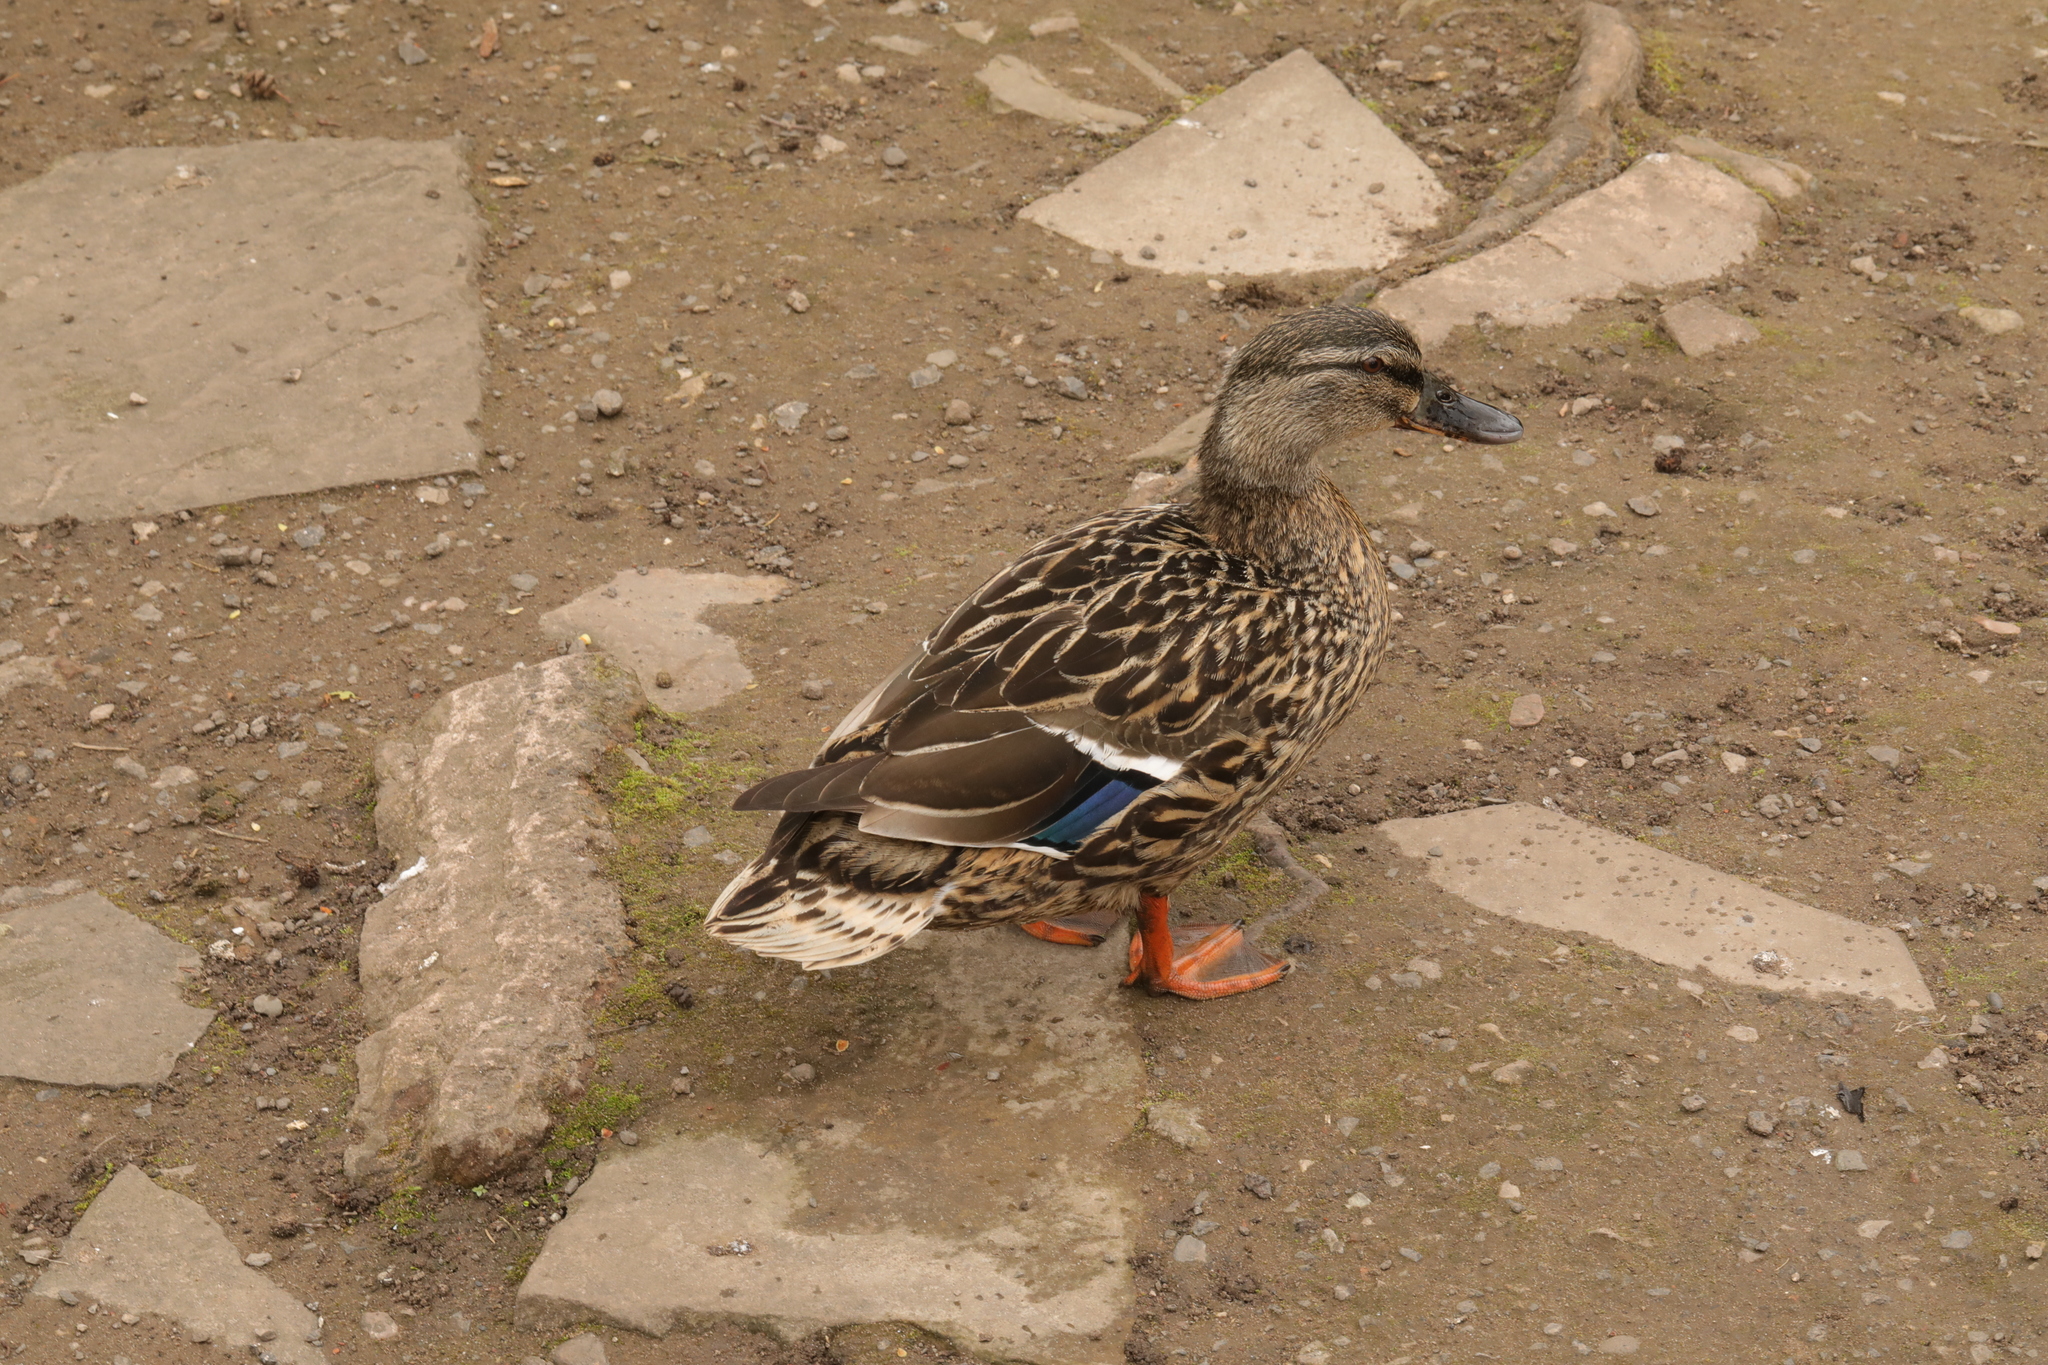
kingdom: Animalia
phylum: Chordata
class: Aves
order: Anseriformes
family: Anatidae
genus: Anas
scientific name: Anas platyrhynchos
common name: Mallard
